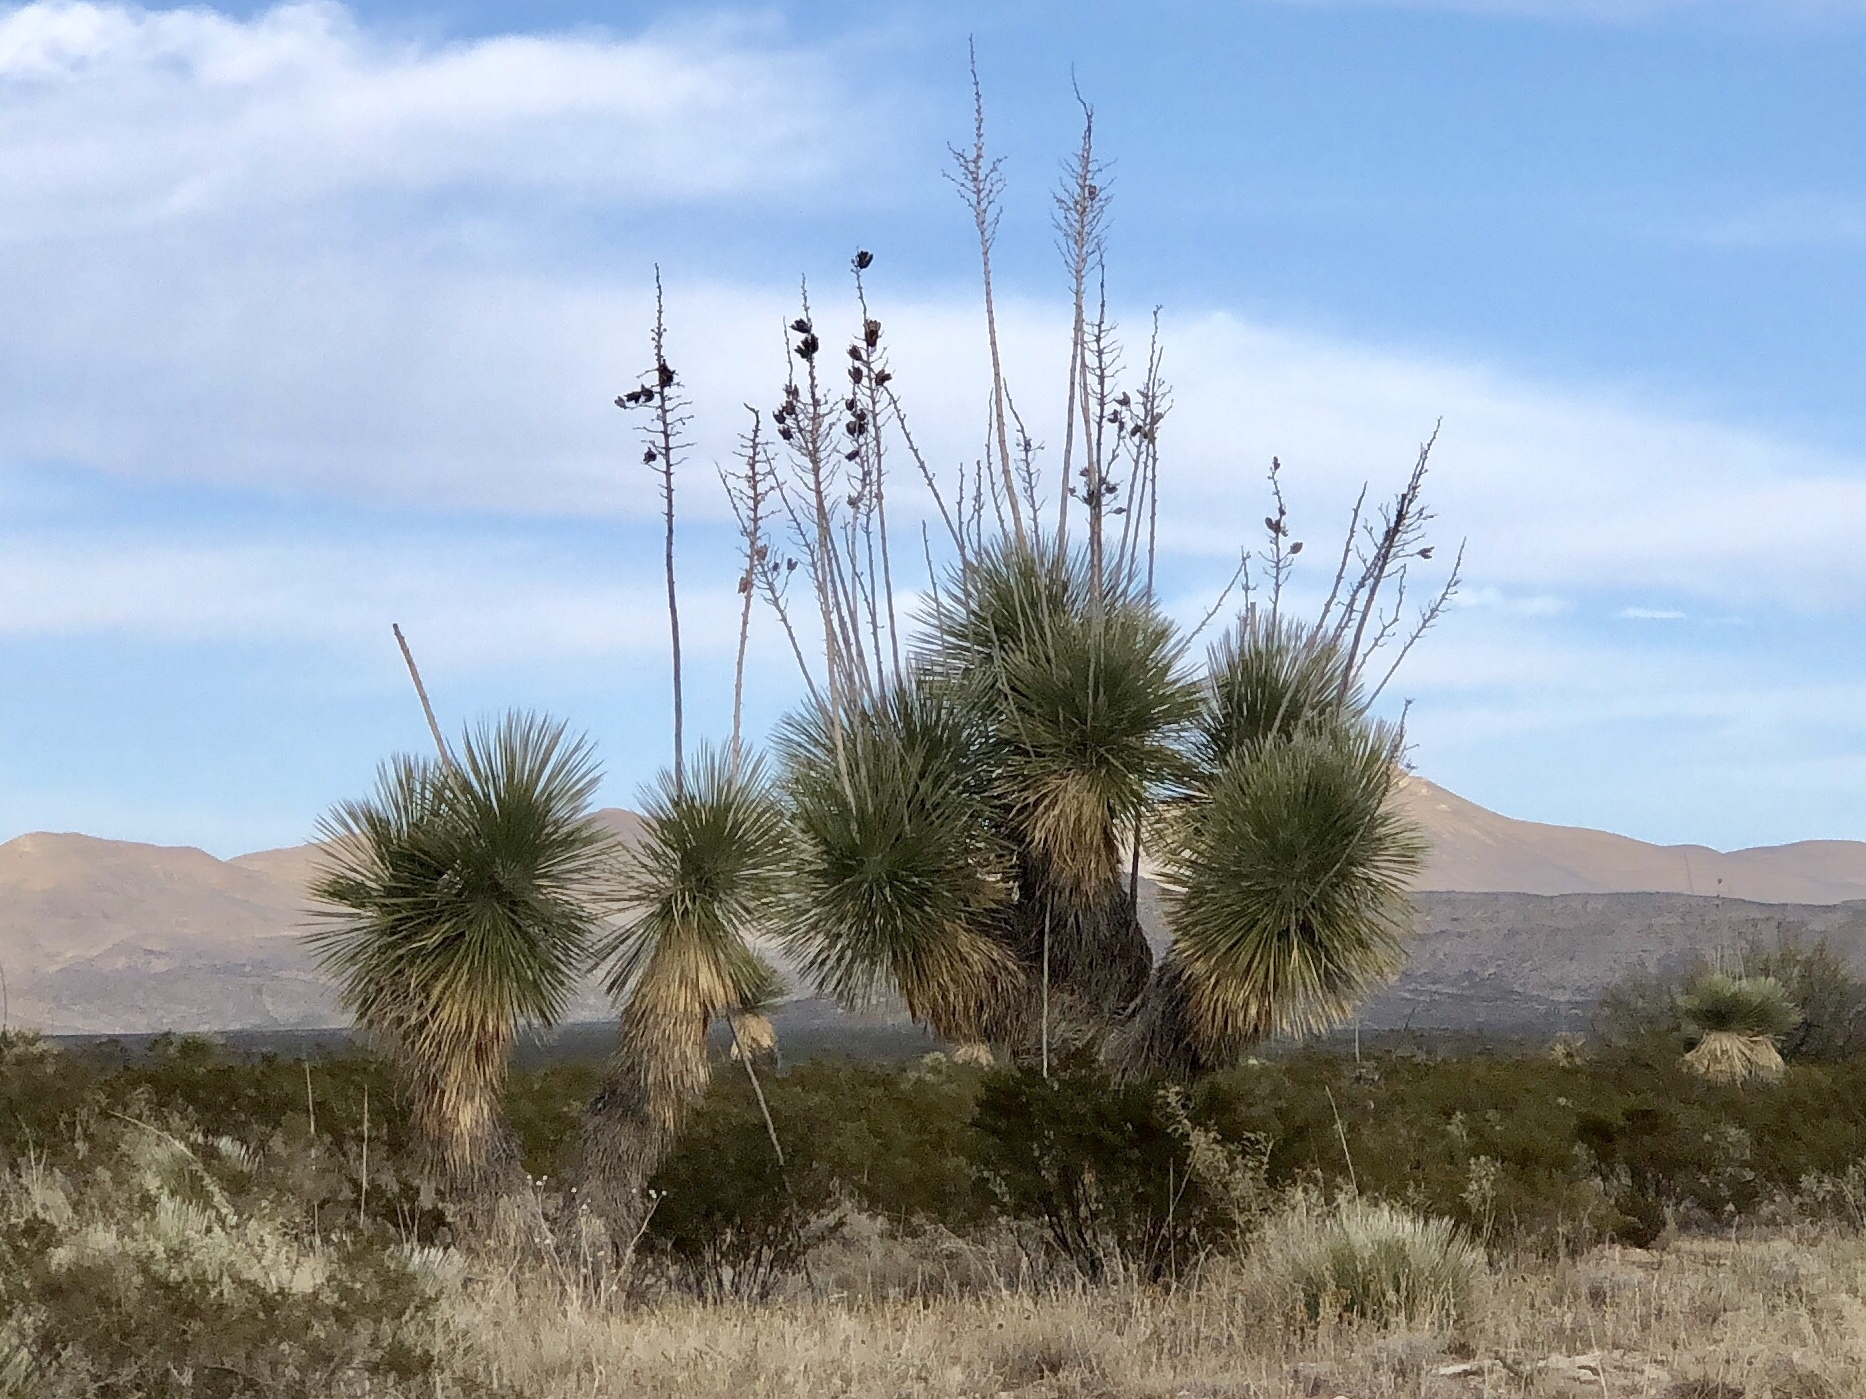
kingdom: Plantae
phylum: Tracheophyta
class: Liliopsida
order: Asparagales
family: Asparagaceae
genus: Yucca
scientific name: Yucca elata
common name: Palmella
